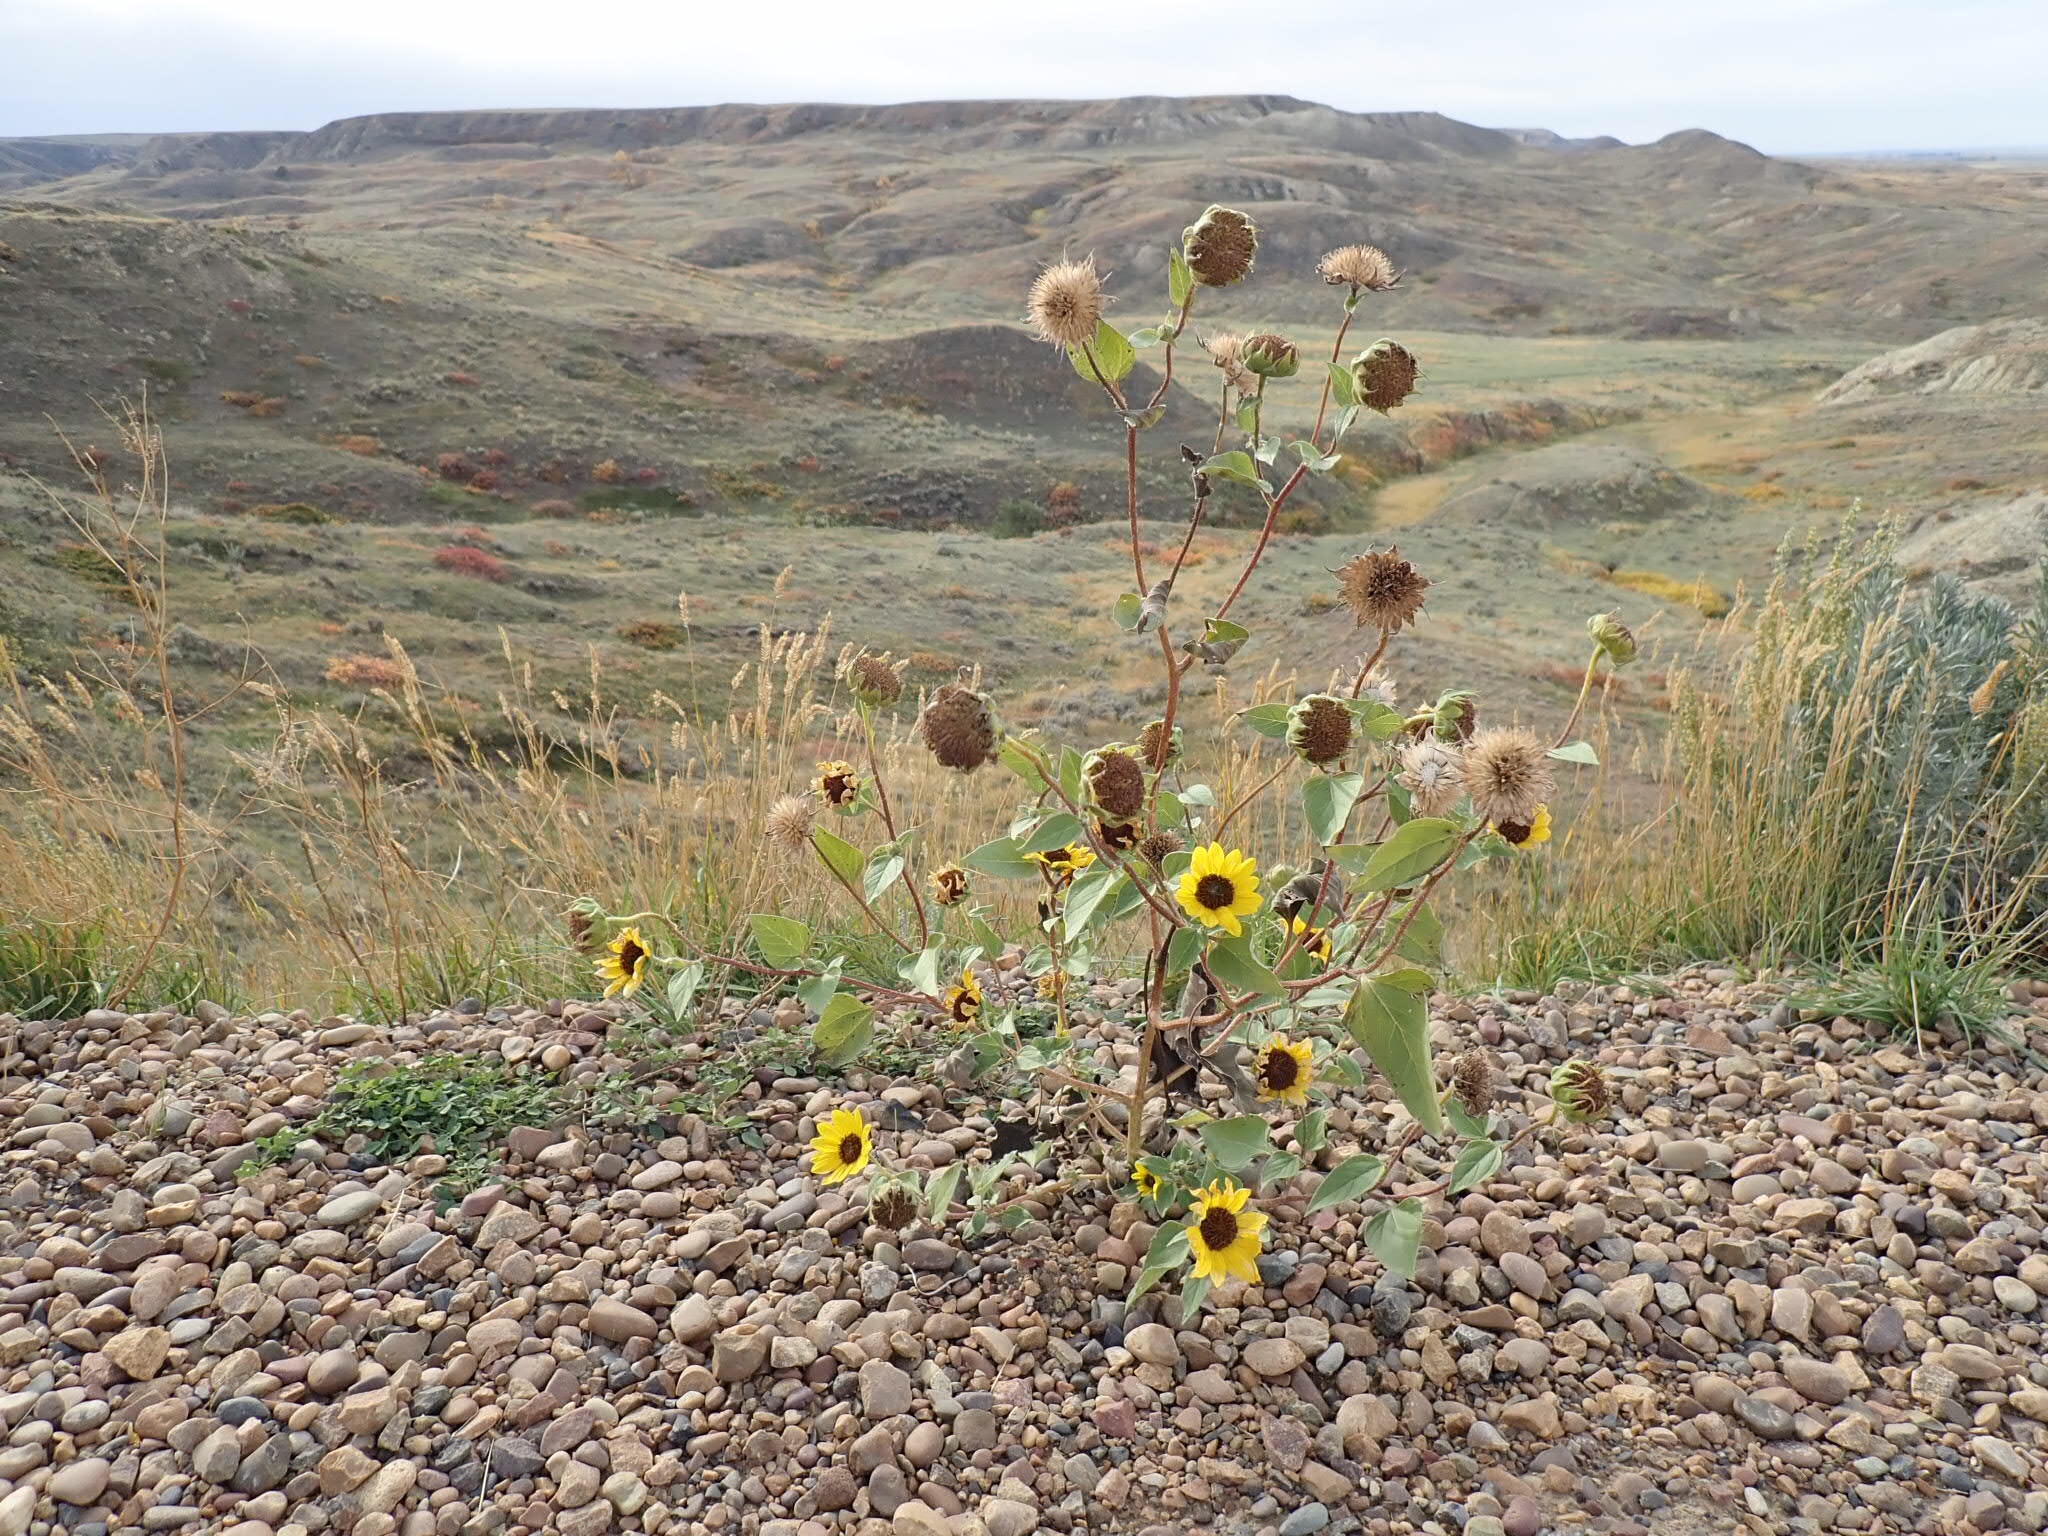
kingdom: Plantae
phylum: Tracheophyta
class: Magnoliopsida
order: Asterales
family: Asteraceae
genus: Helianthus
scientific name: Helianthus annuus
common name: Sunflower
